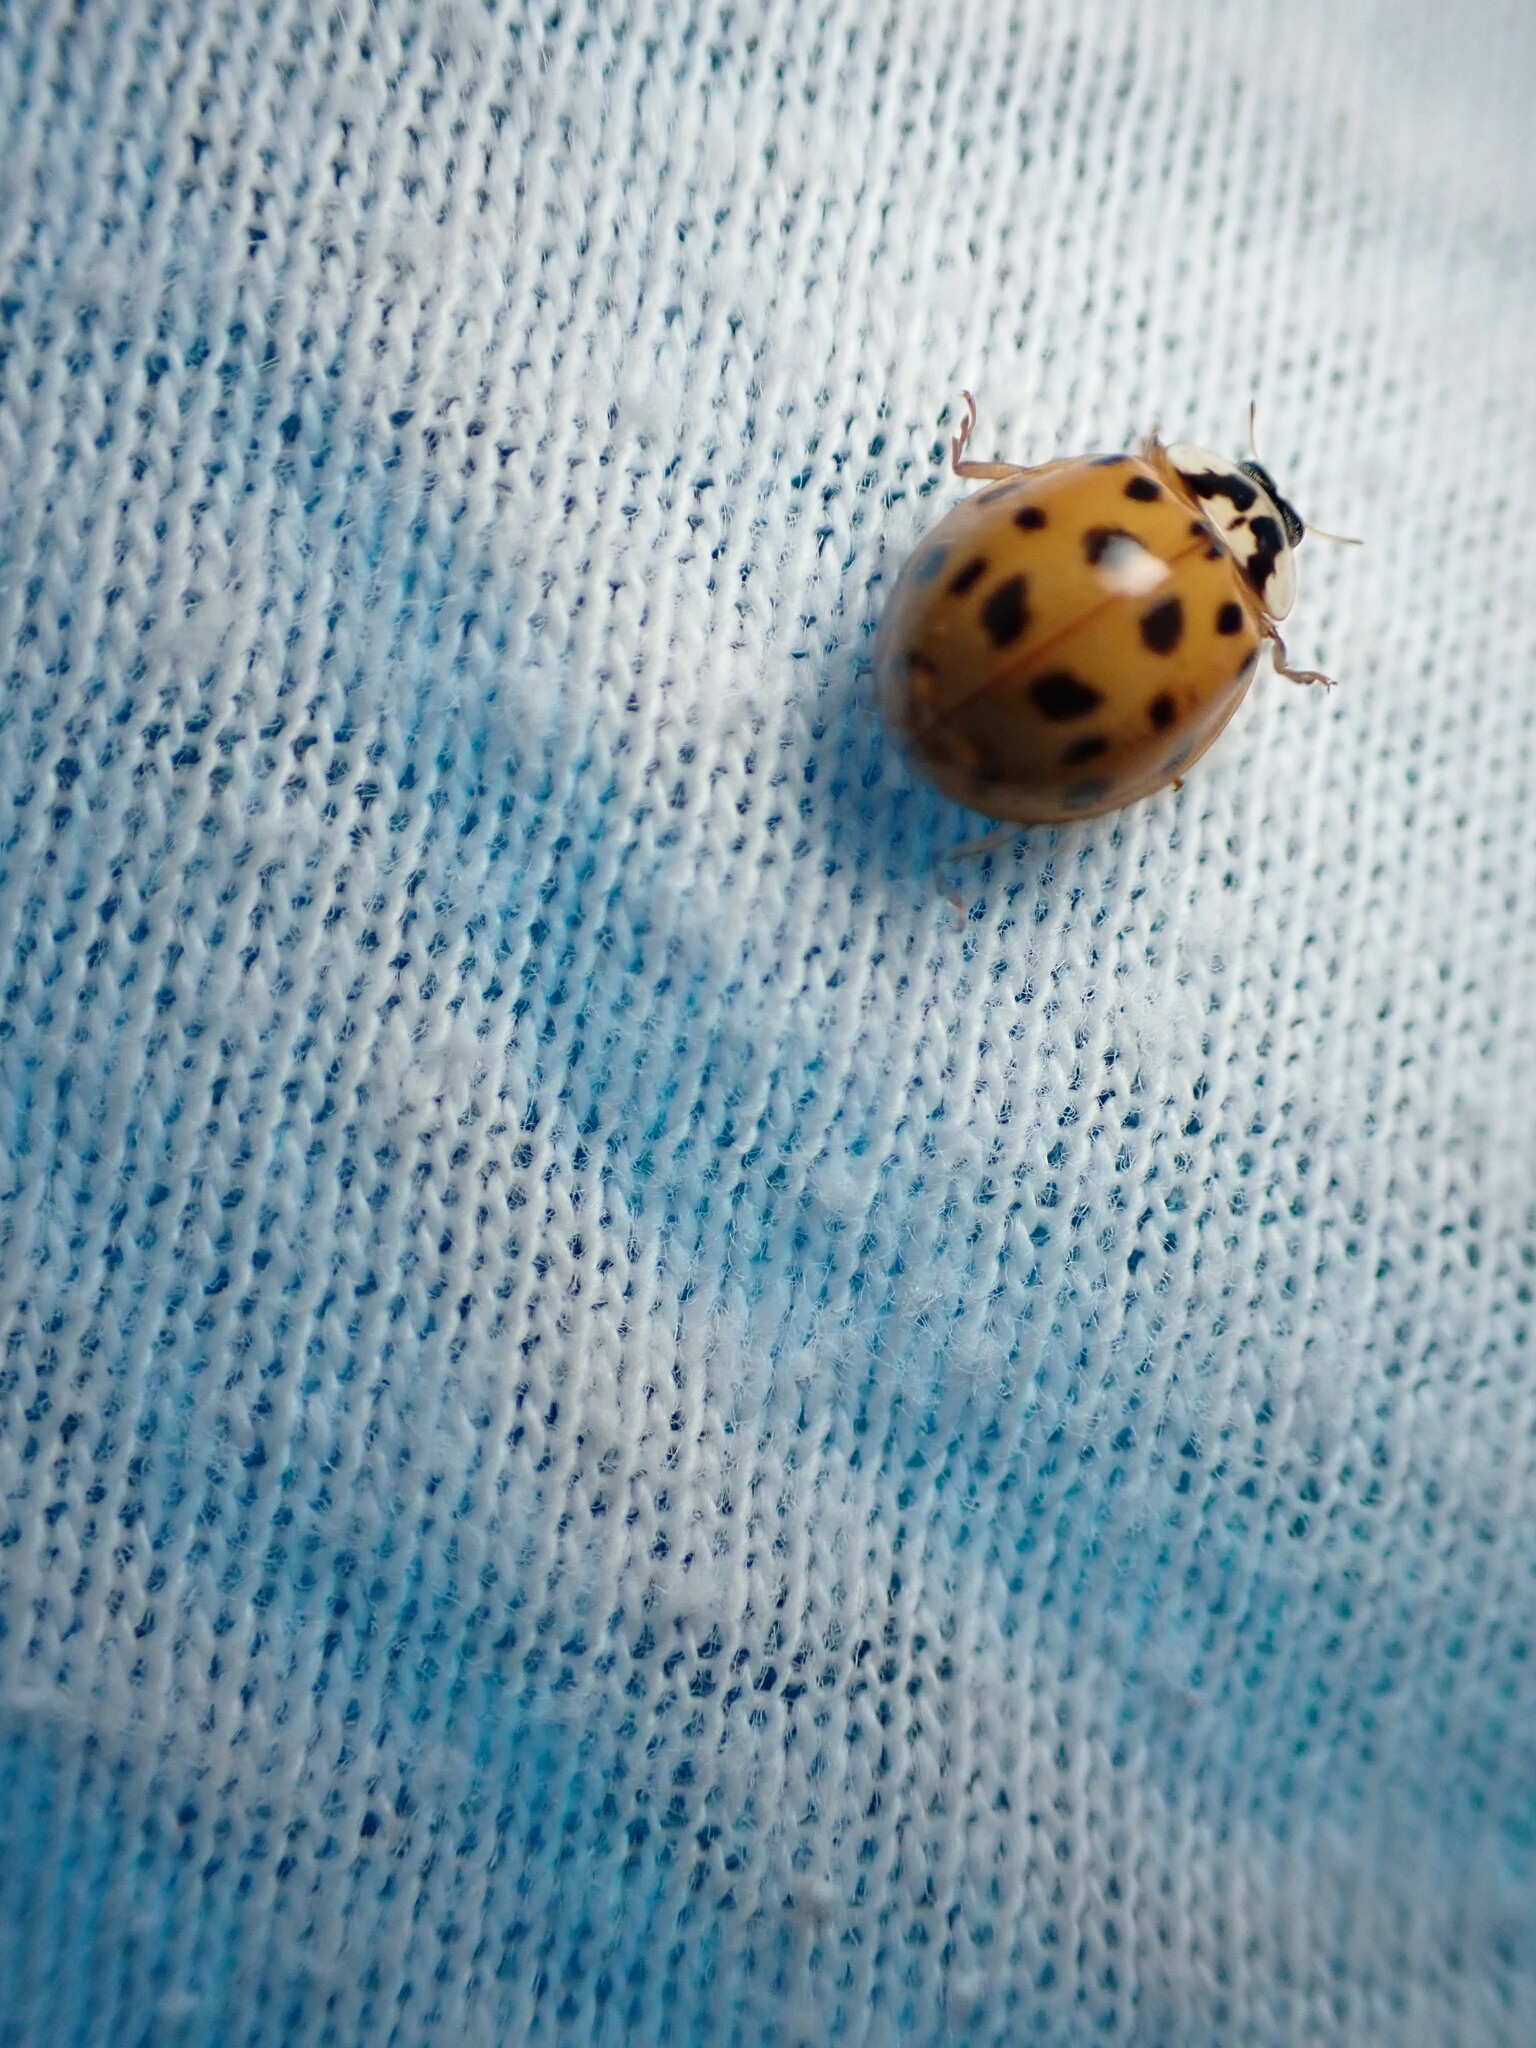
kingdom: Animalia
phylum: Arthropoda
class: Insecta
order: Coleoptera
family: Coccinellidae
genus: Harmonia
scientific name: Harmonia axyridis
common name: Harlequin ladybird
